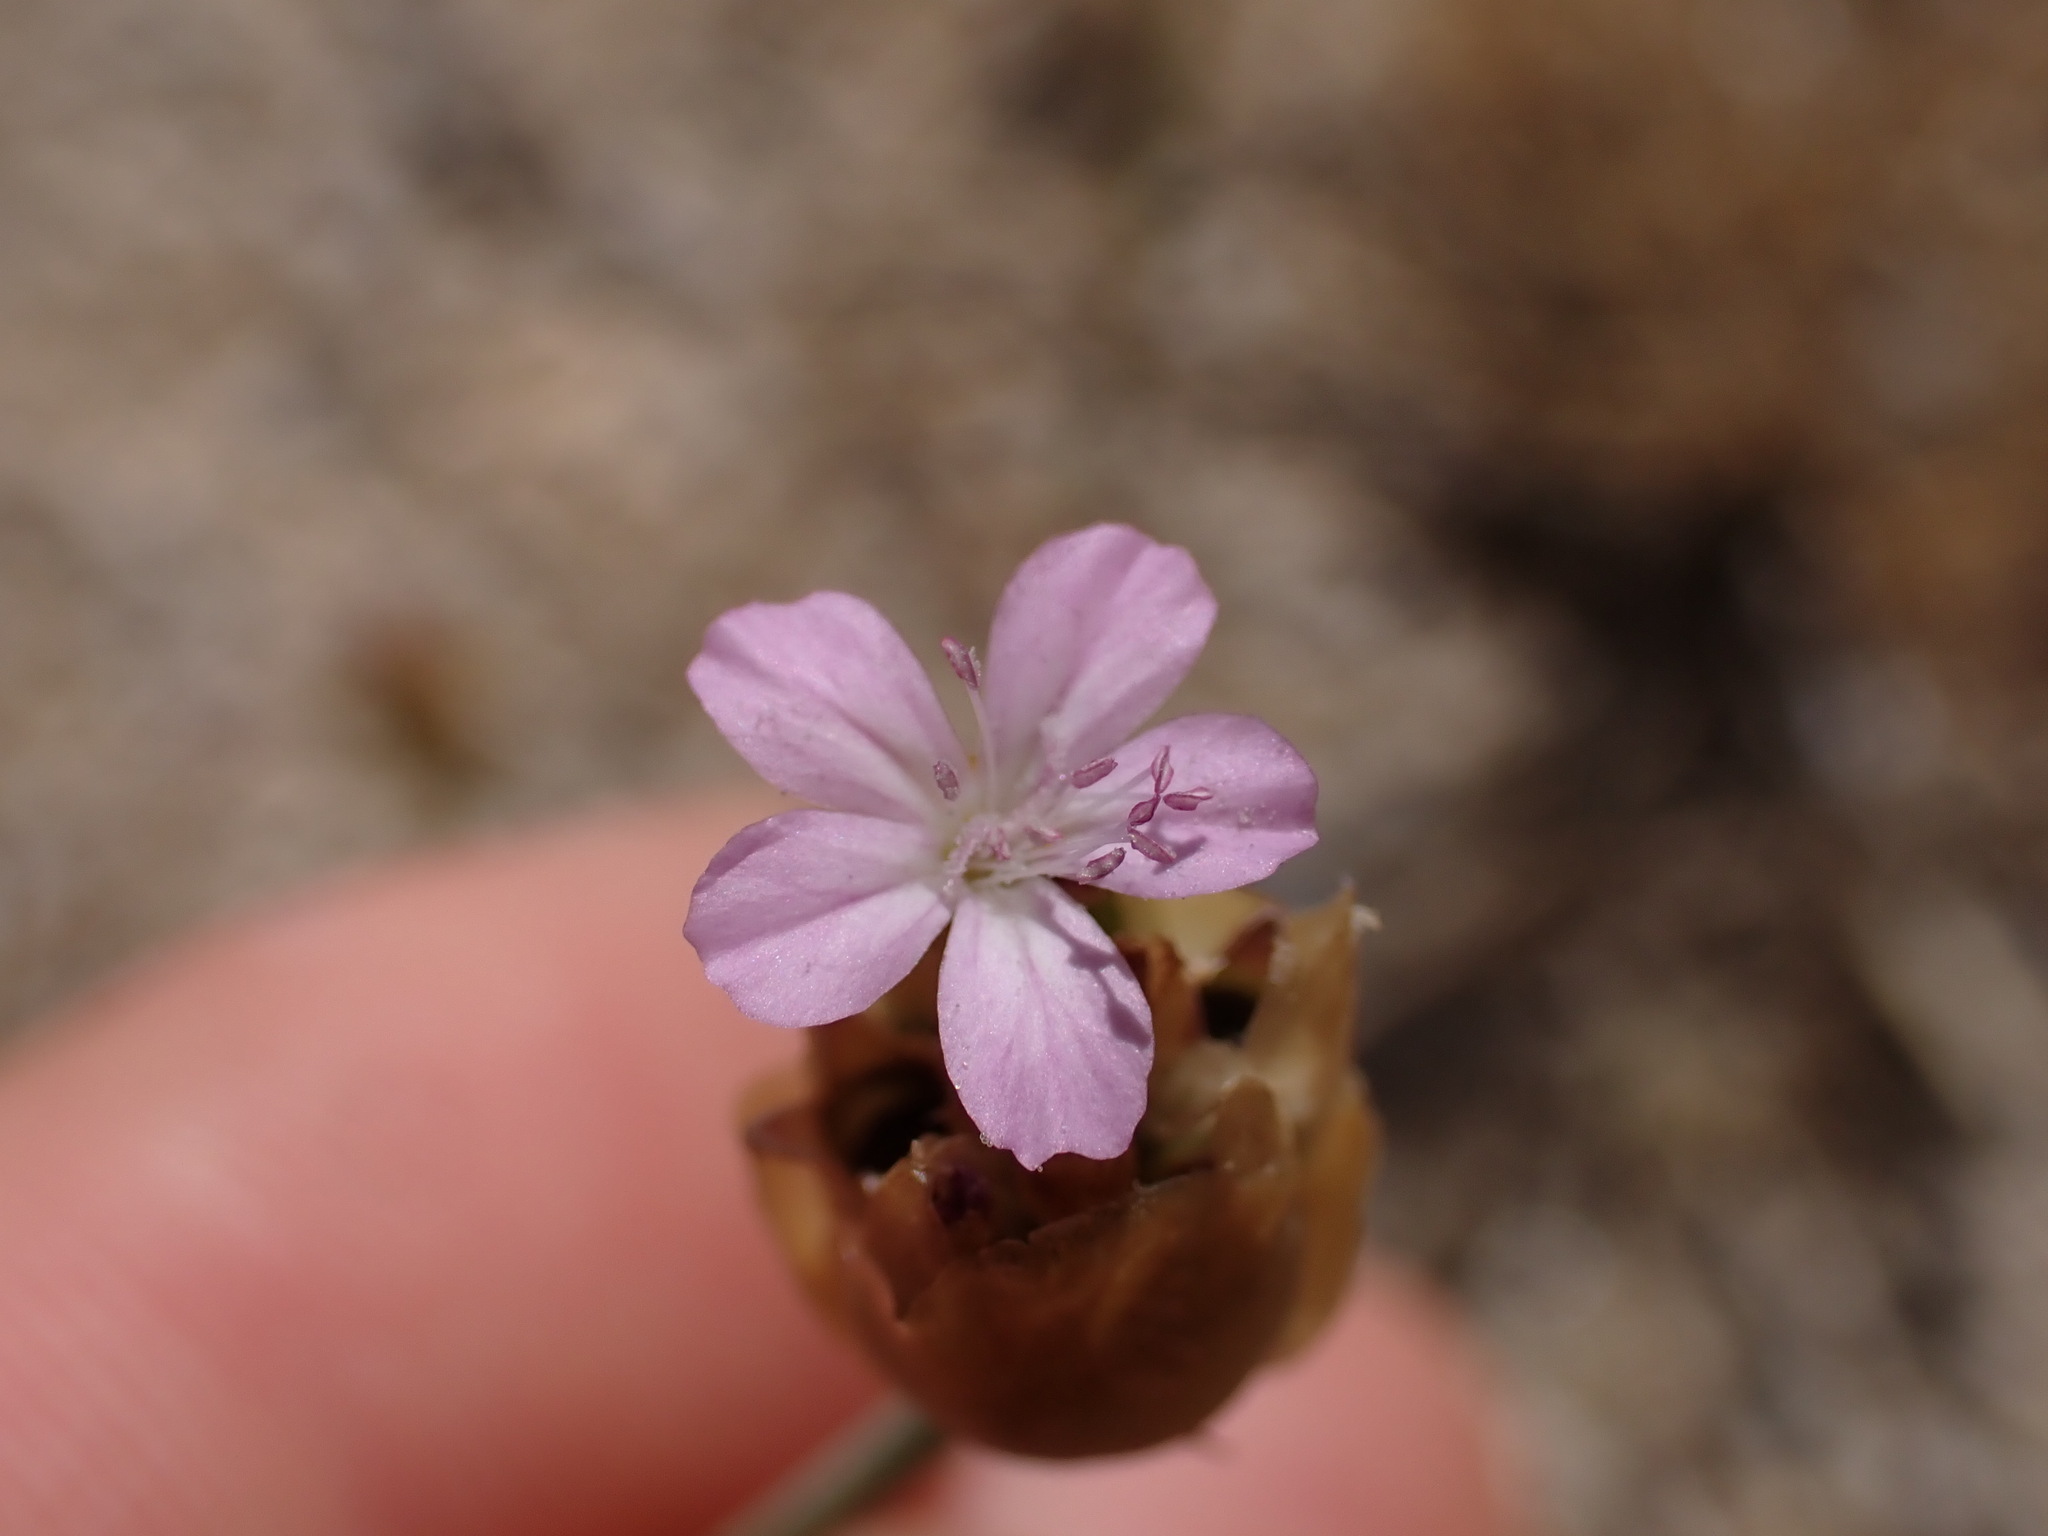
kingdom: Plantae
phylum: Tracheophyta
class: Magnoliopsida
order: Caryophyllales
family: Caryophyllaceae
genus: Petrorhagia
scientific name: Petrorhagia prolifera
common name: Proliferous pink
